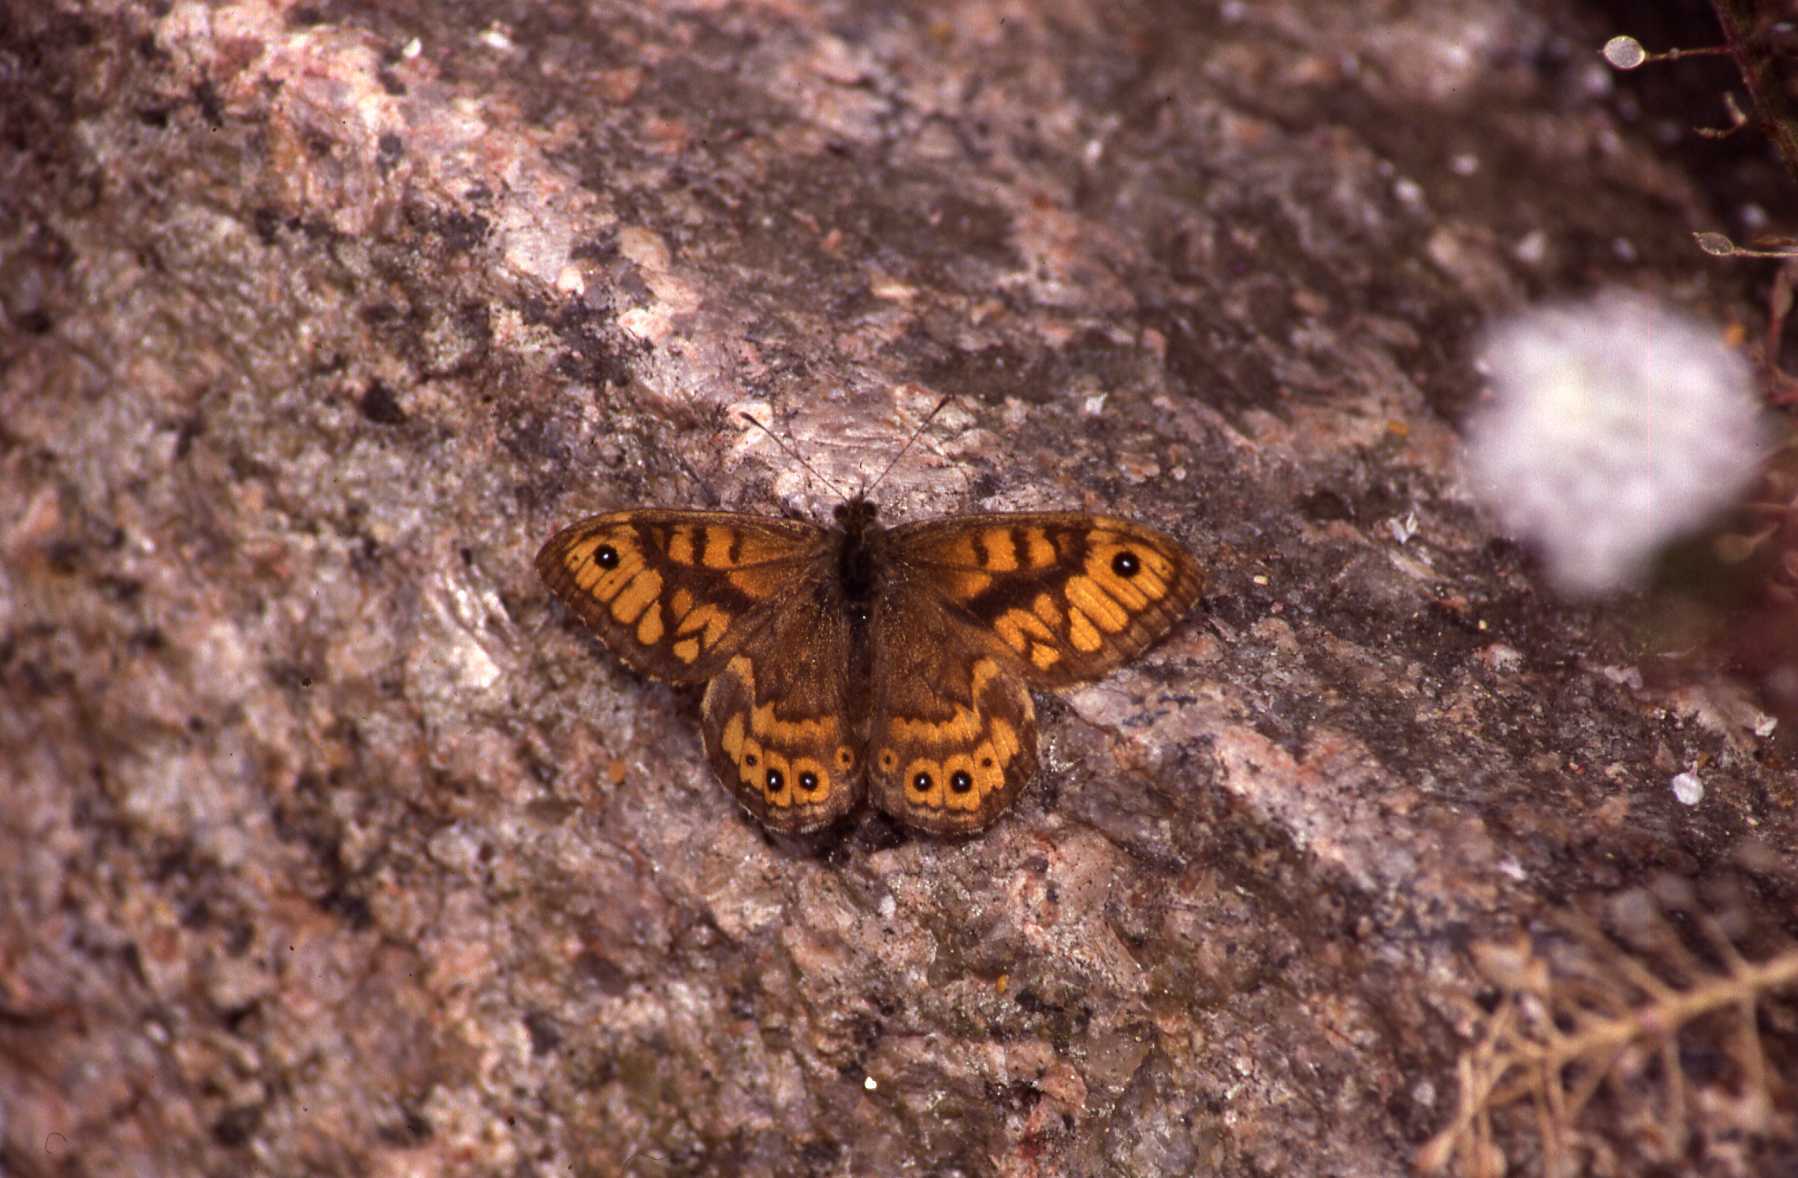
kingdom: Animalia
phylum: Arthropoda
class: Insecta
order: Lepidoptera
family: Nymphalidae
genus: Pararge
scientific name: Pararge Lasiommata megera
